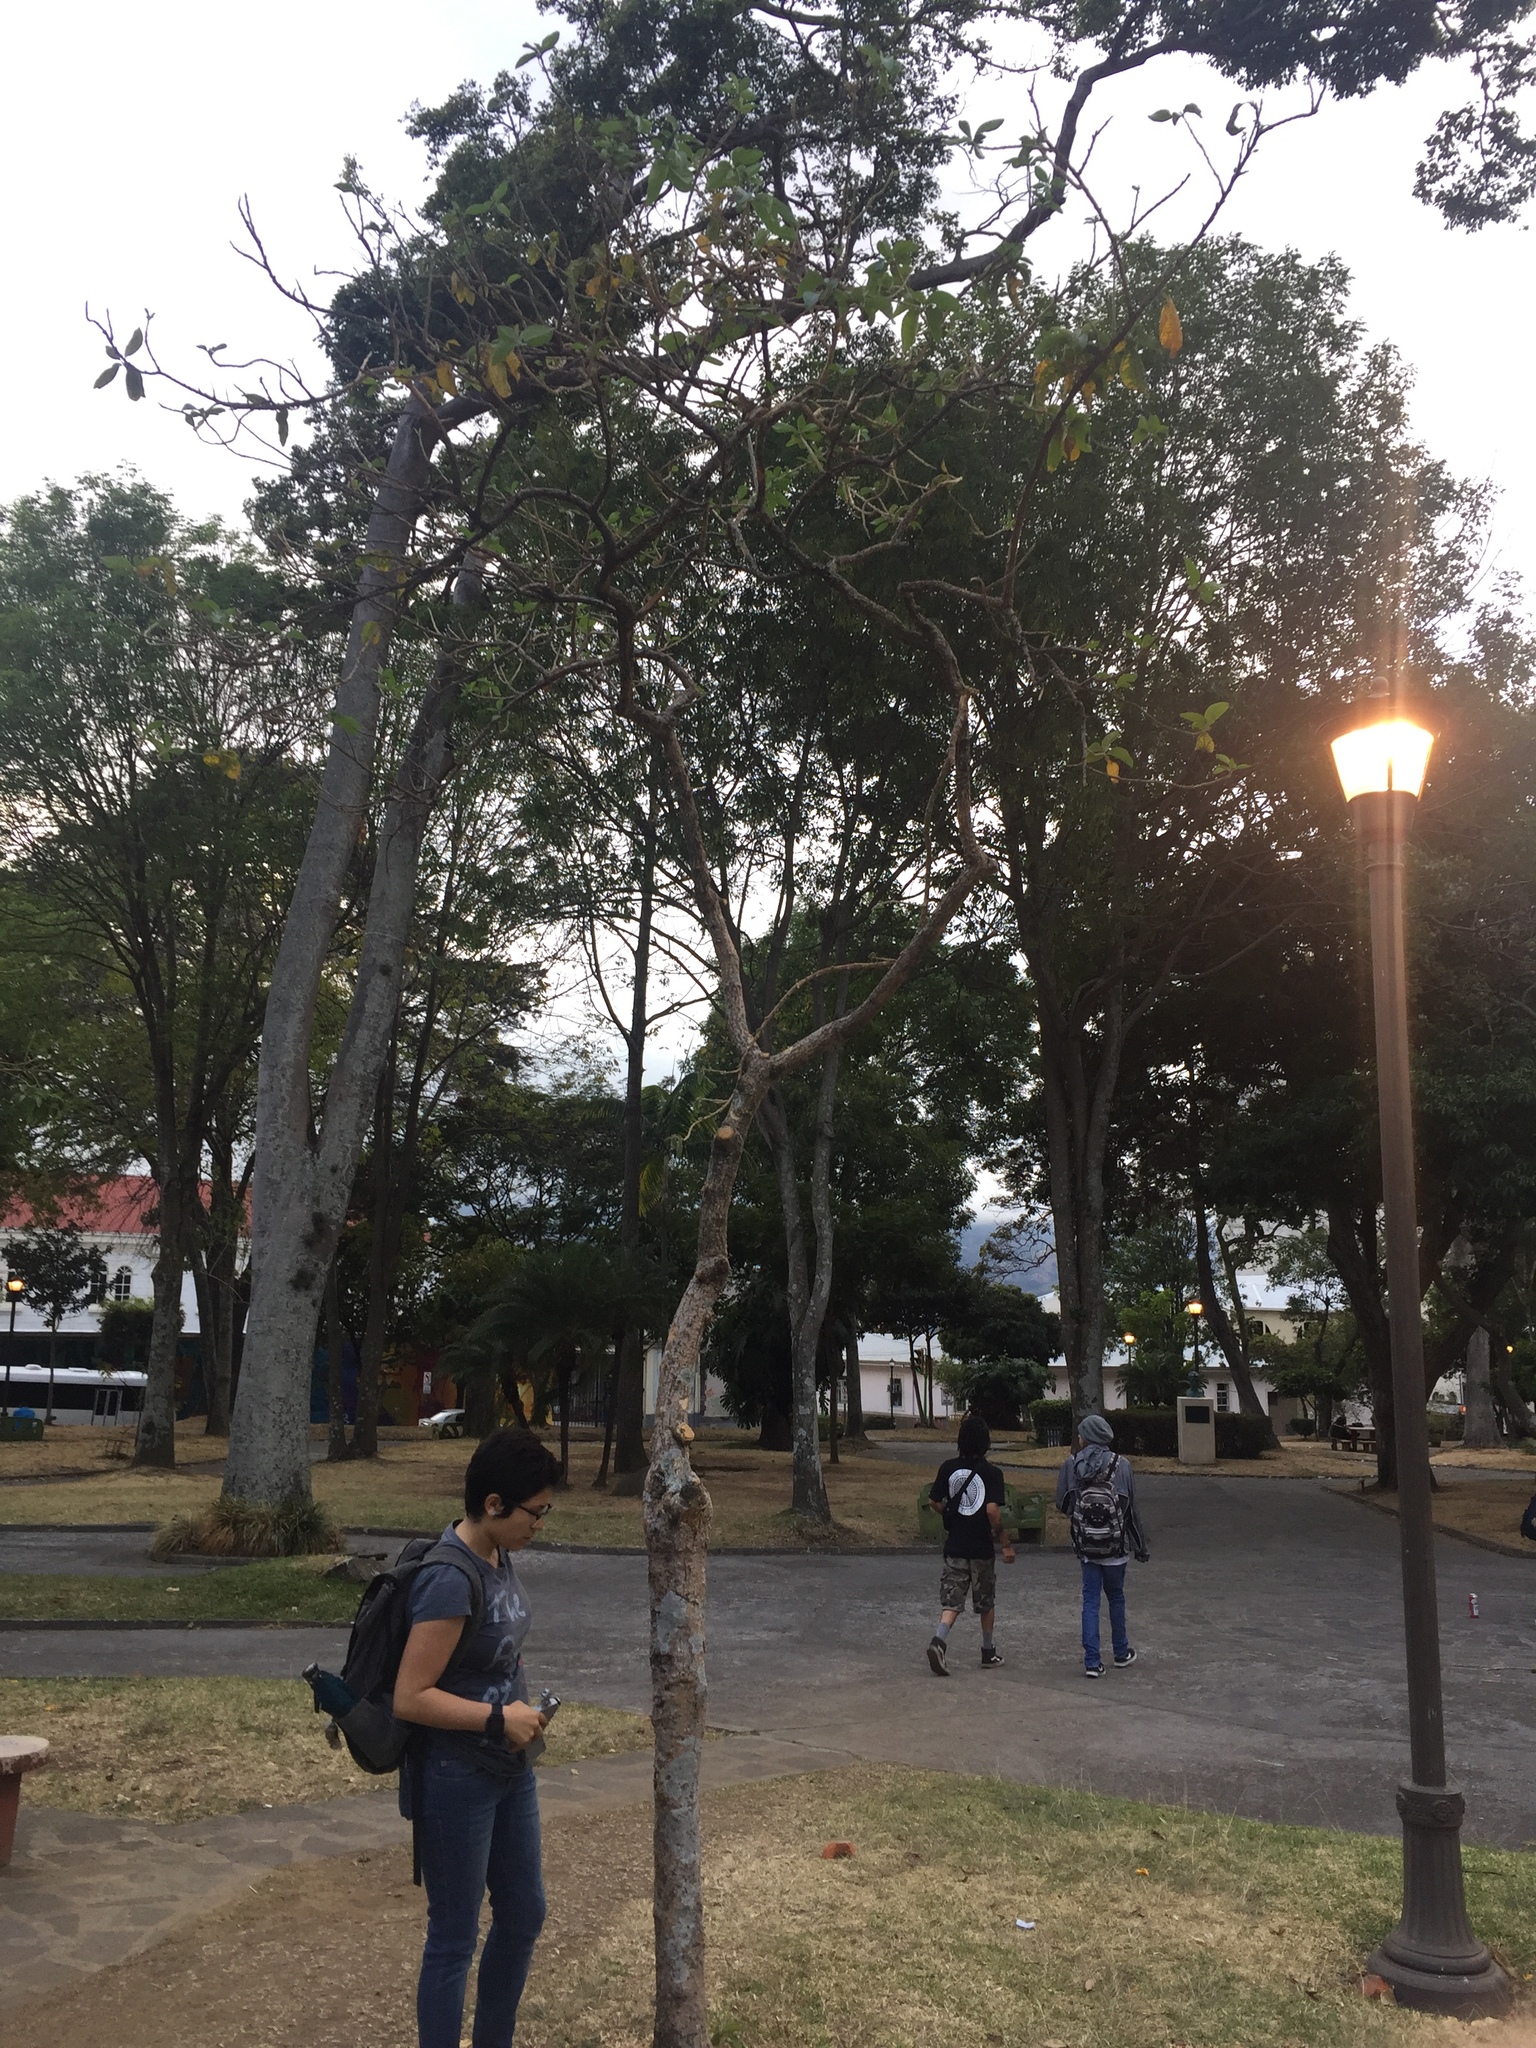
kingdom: Plantae
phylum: Tracheophyta
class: Magnoliopsida
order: Solanales
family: Solanaceae
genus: Iochroma
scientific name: Iochroma arborescens
